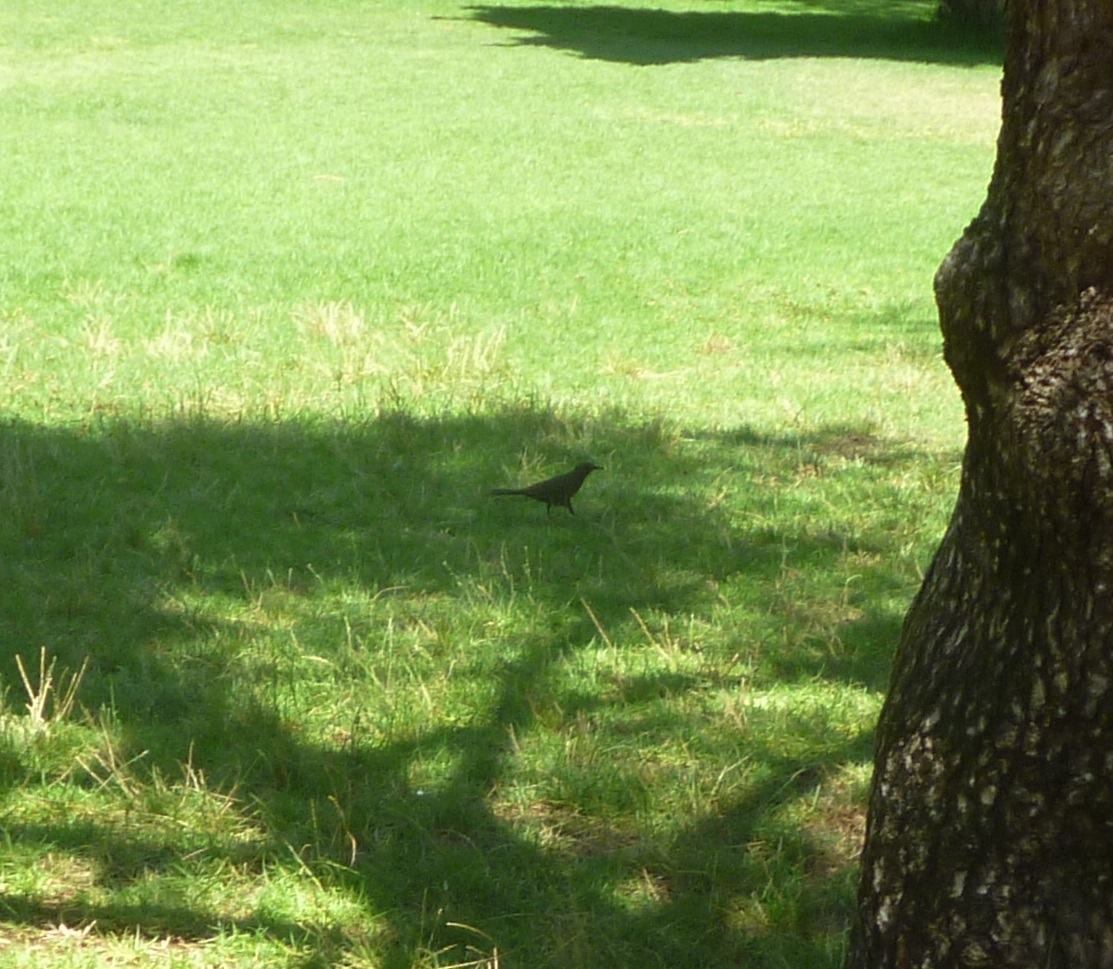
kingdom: Animalia
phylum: Chordata
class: Aves
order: Passeriformes
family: Turdidae
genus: Turdus
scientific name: Turdus merula
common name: Common blackbird
